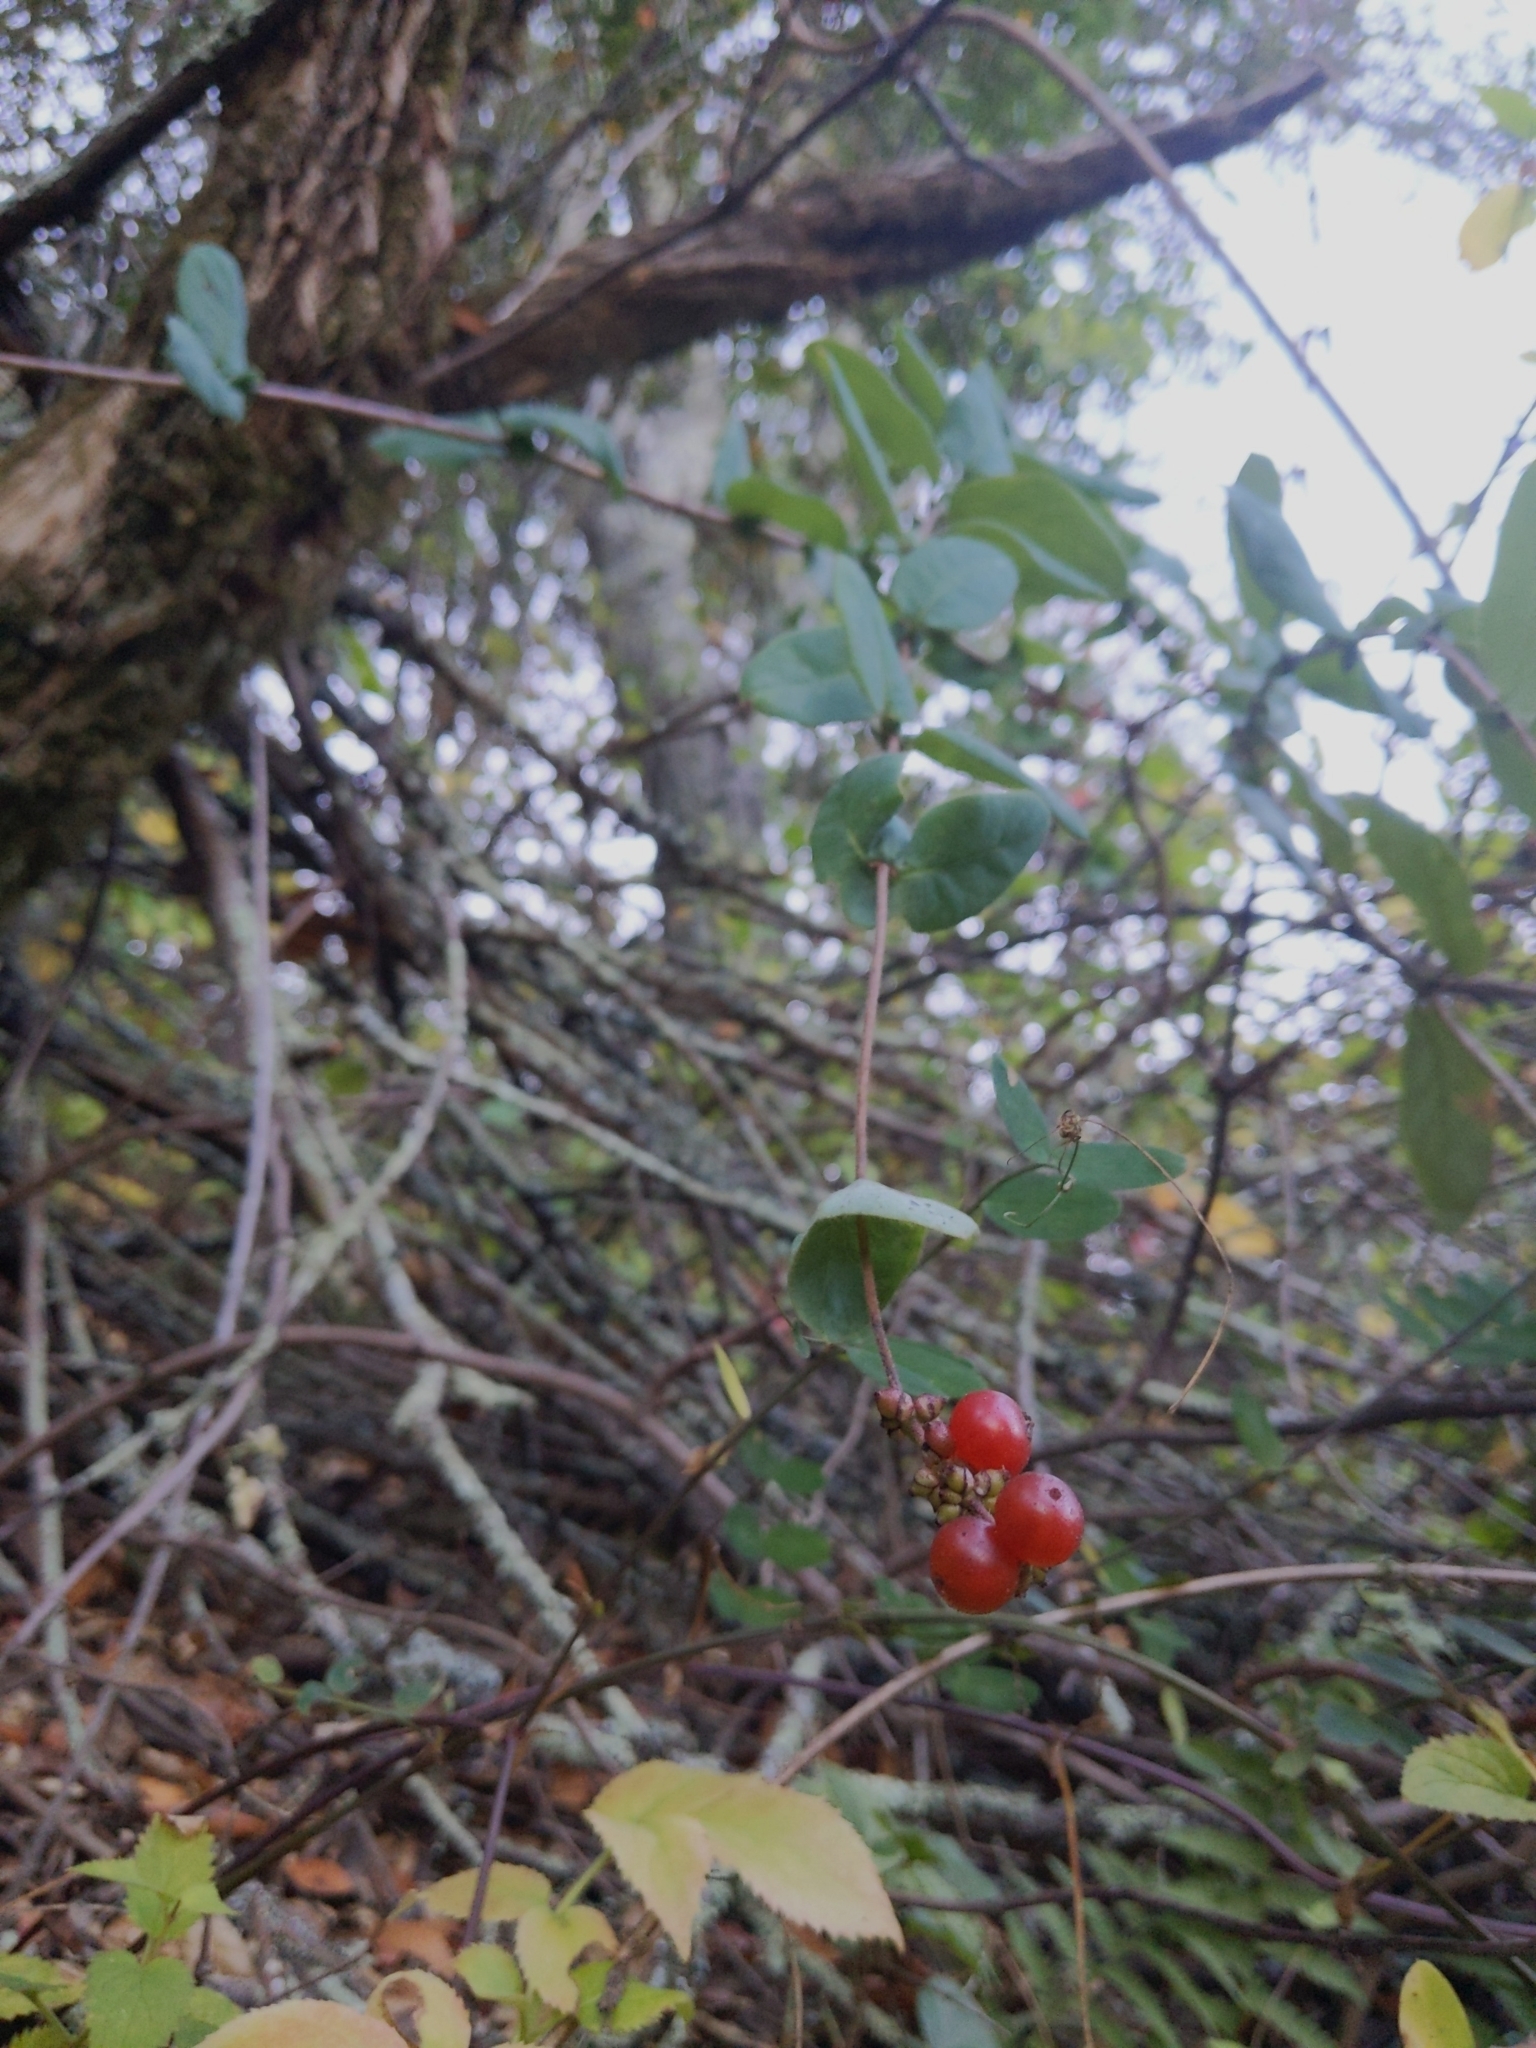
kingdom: Plantae
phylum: Tracheophyta
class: Magnoliopsida
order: Dipsacales
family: Caprifoliaceae
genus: Lonicera
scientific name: Lonicera hispidula
